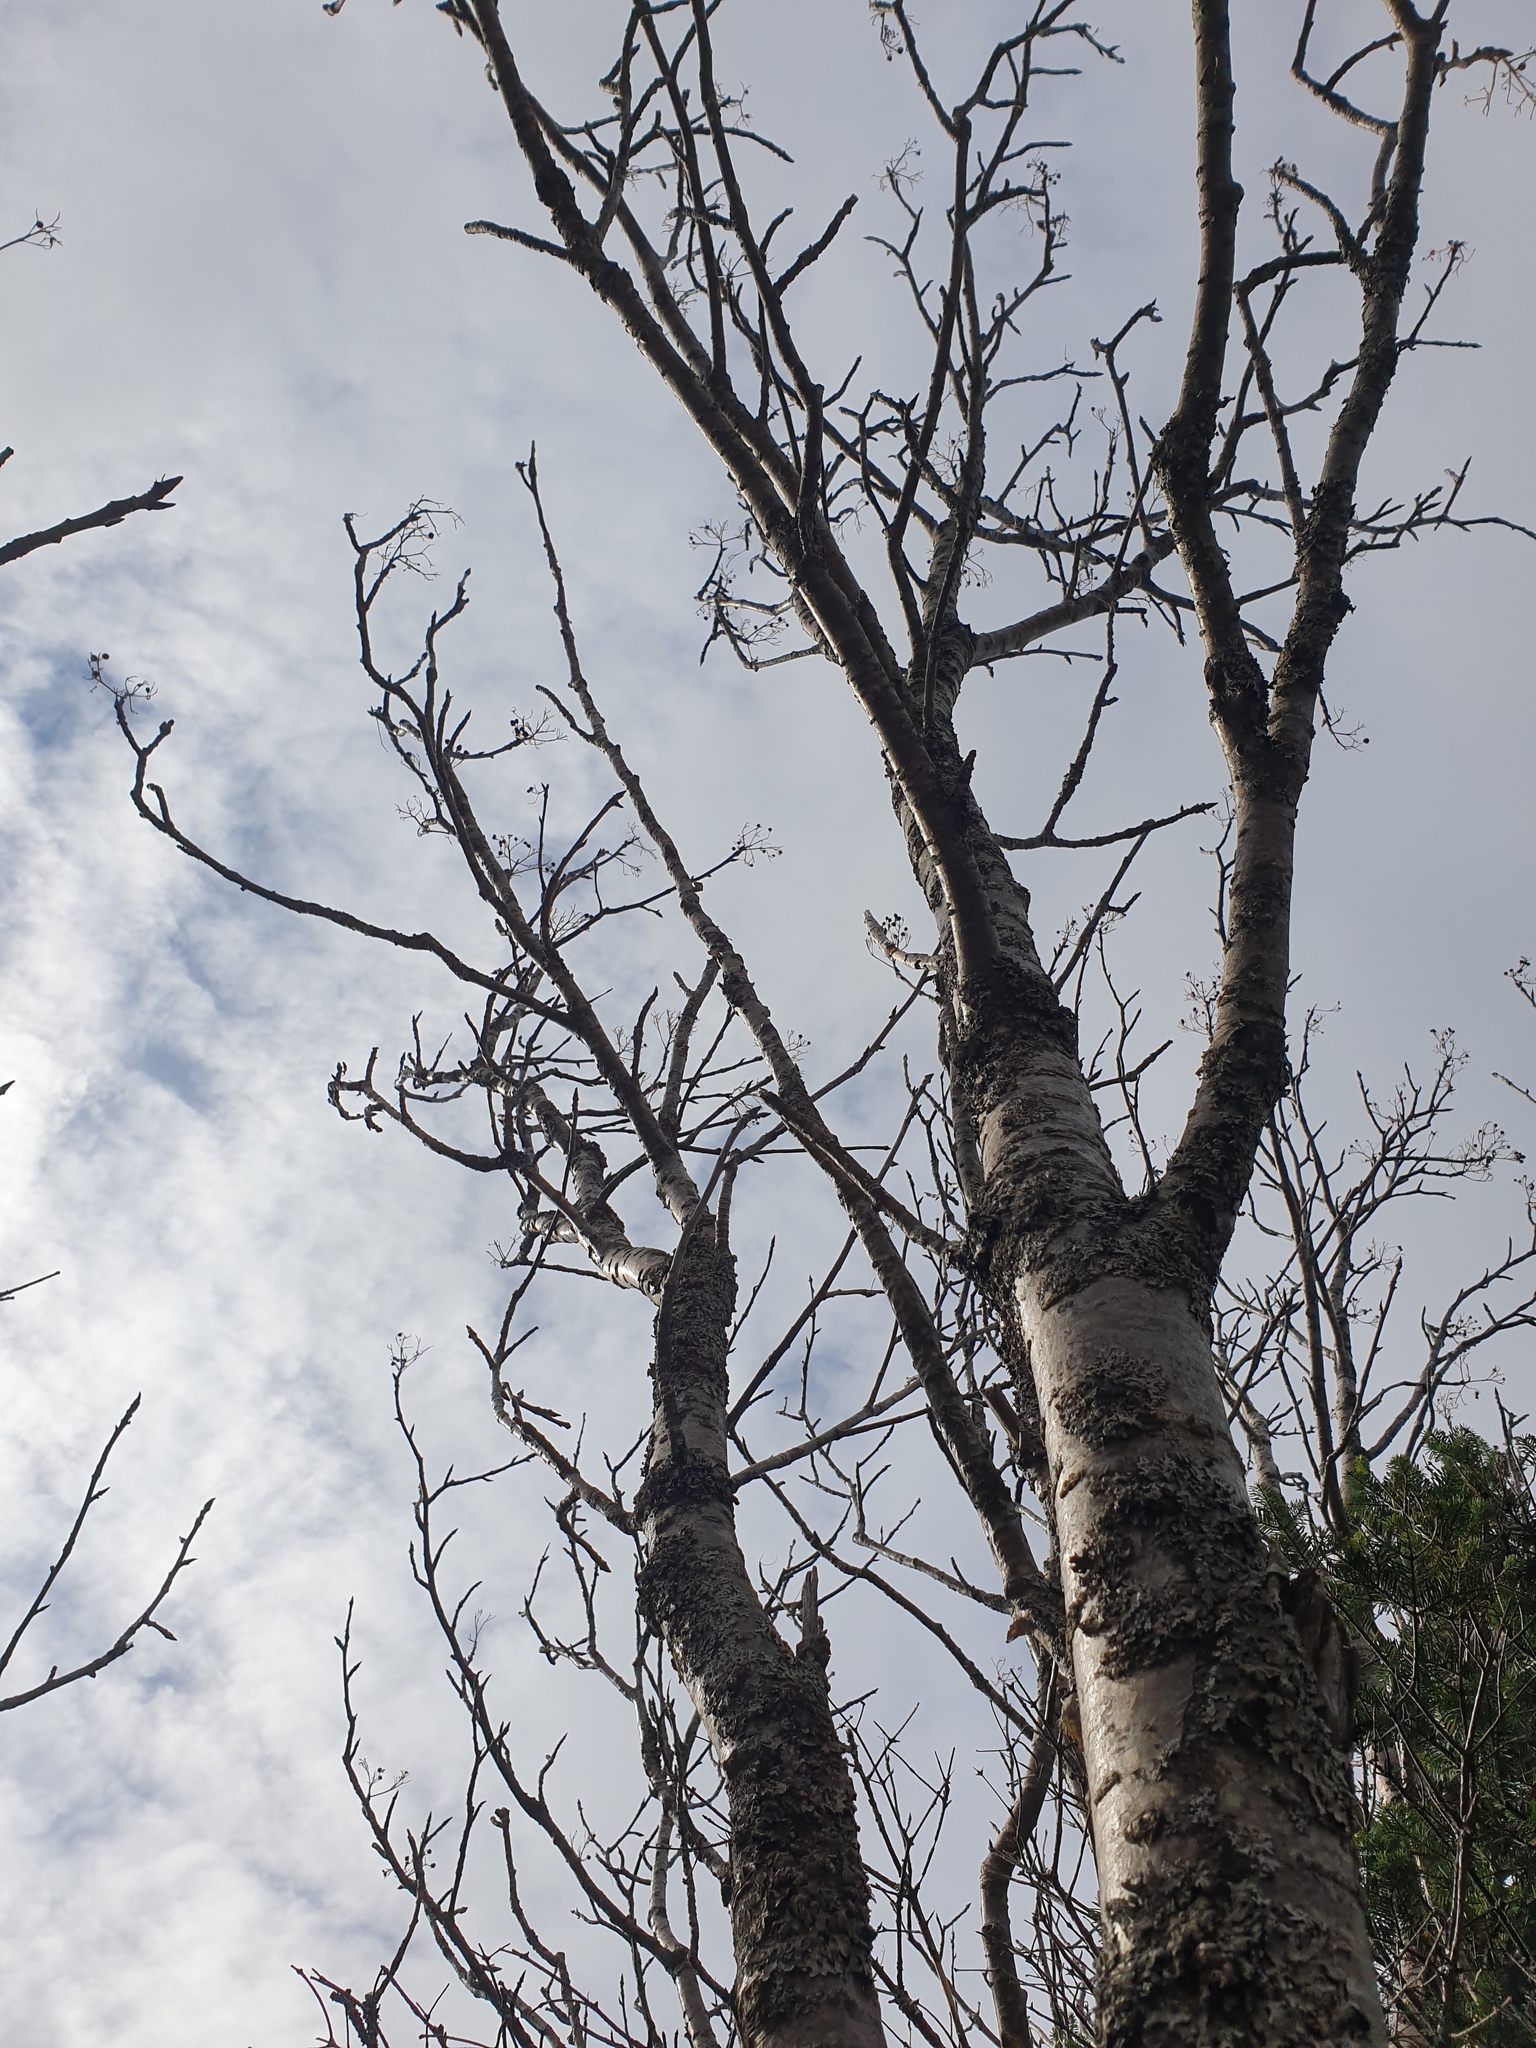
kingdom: Plantae
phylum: Tracheophyta
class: Magnoliopsida
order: Rosales
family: Rosaceae
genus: Sorbus
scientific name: Sorbus americana
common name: American mountain-ash
